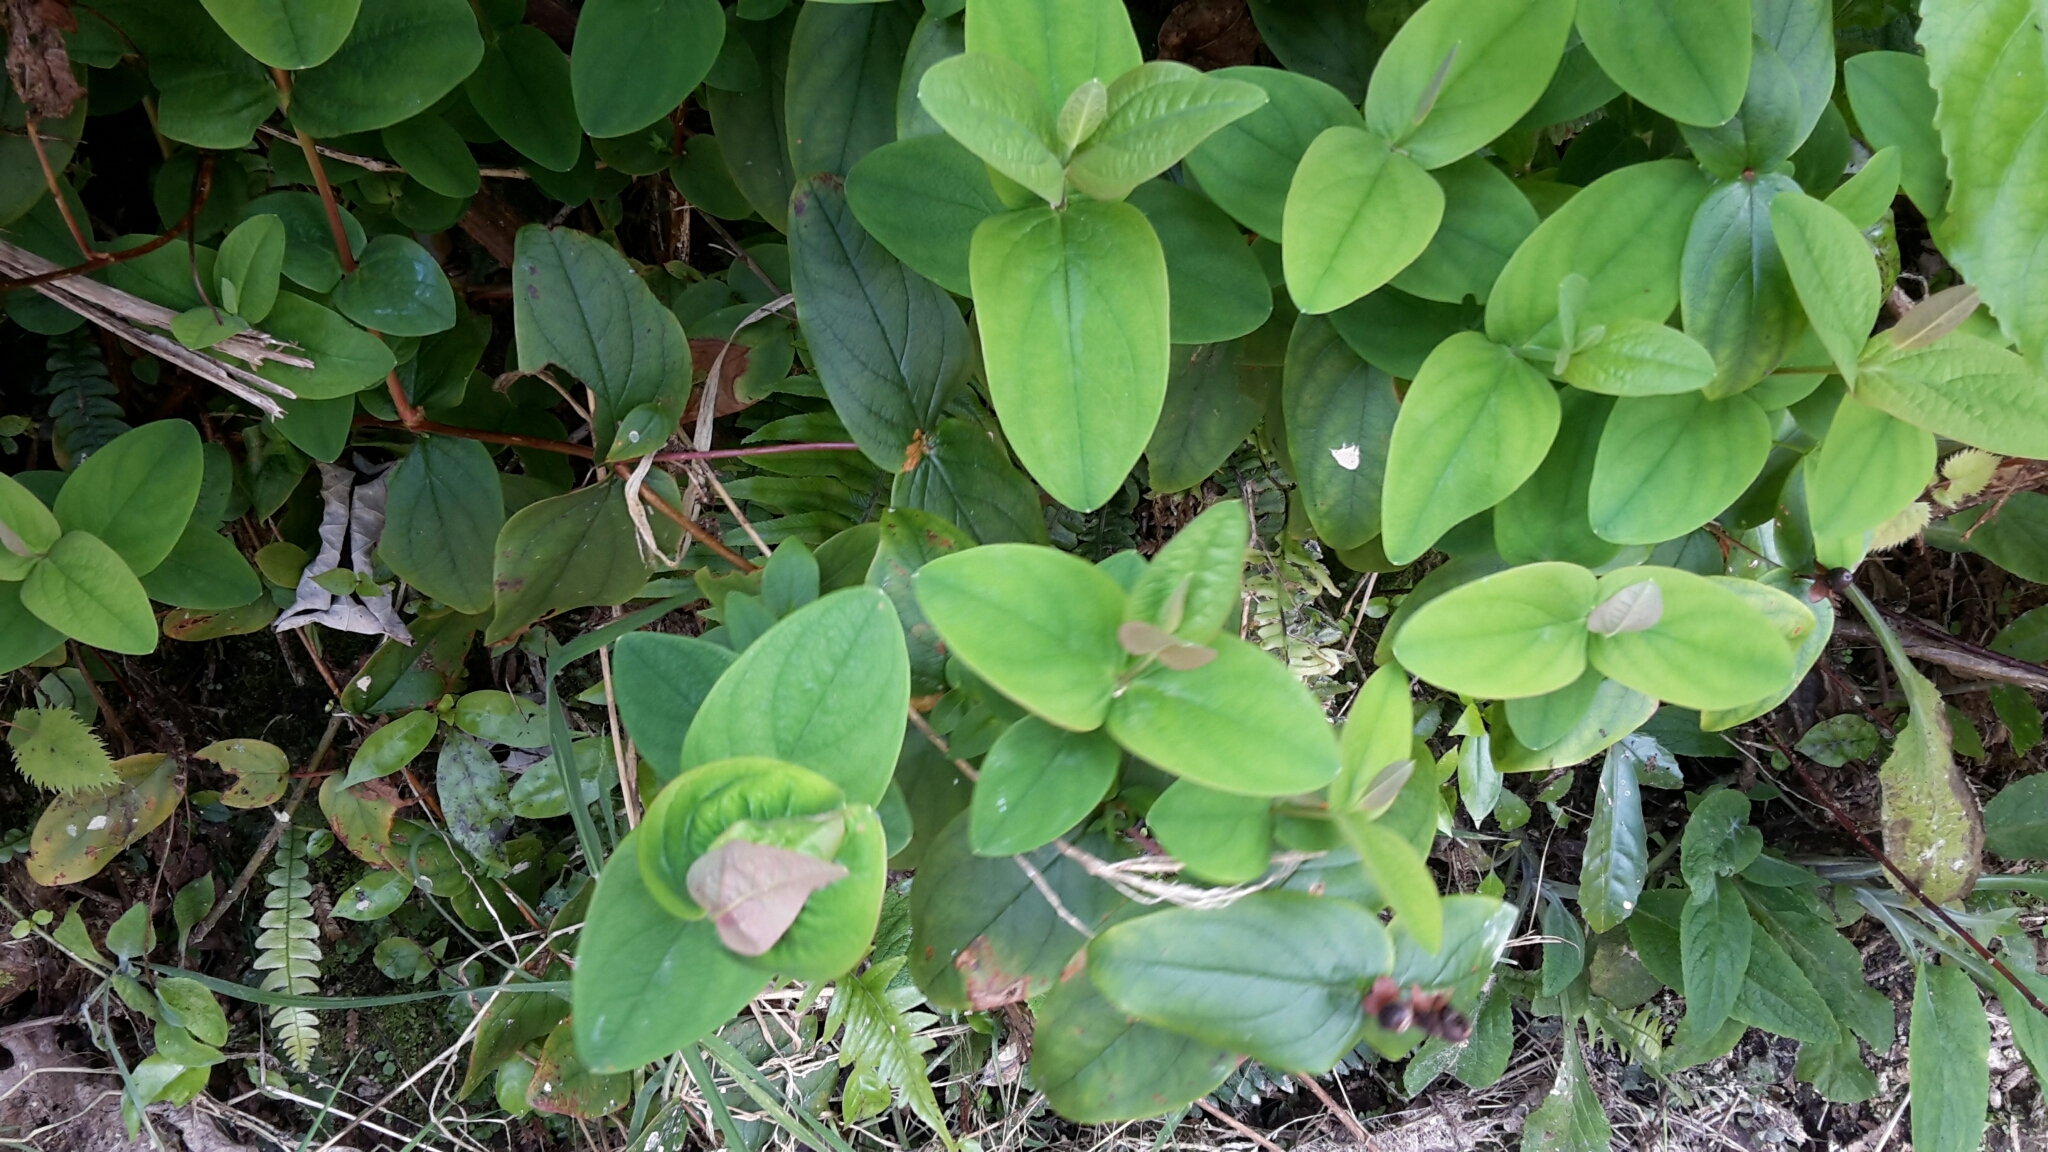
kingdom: Plantae
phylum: Tracheophyta
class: Magnoliopsida
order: Malpighiales
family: Hypericaceae
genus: Hypericum
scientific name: Hypericum androsaemum
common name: Sweet-amber
